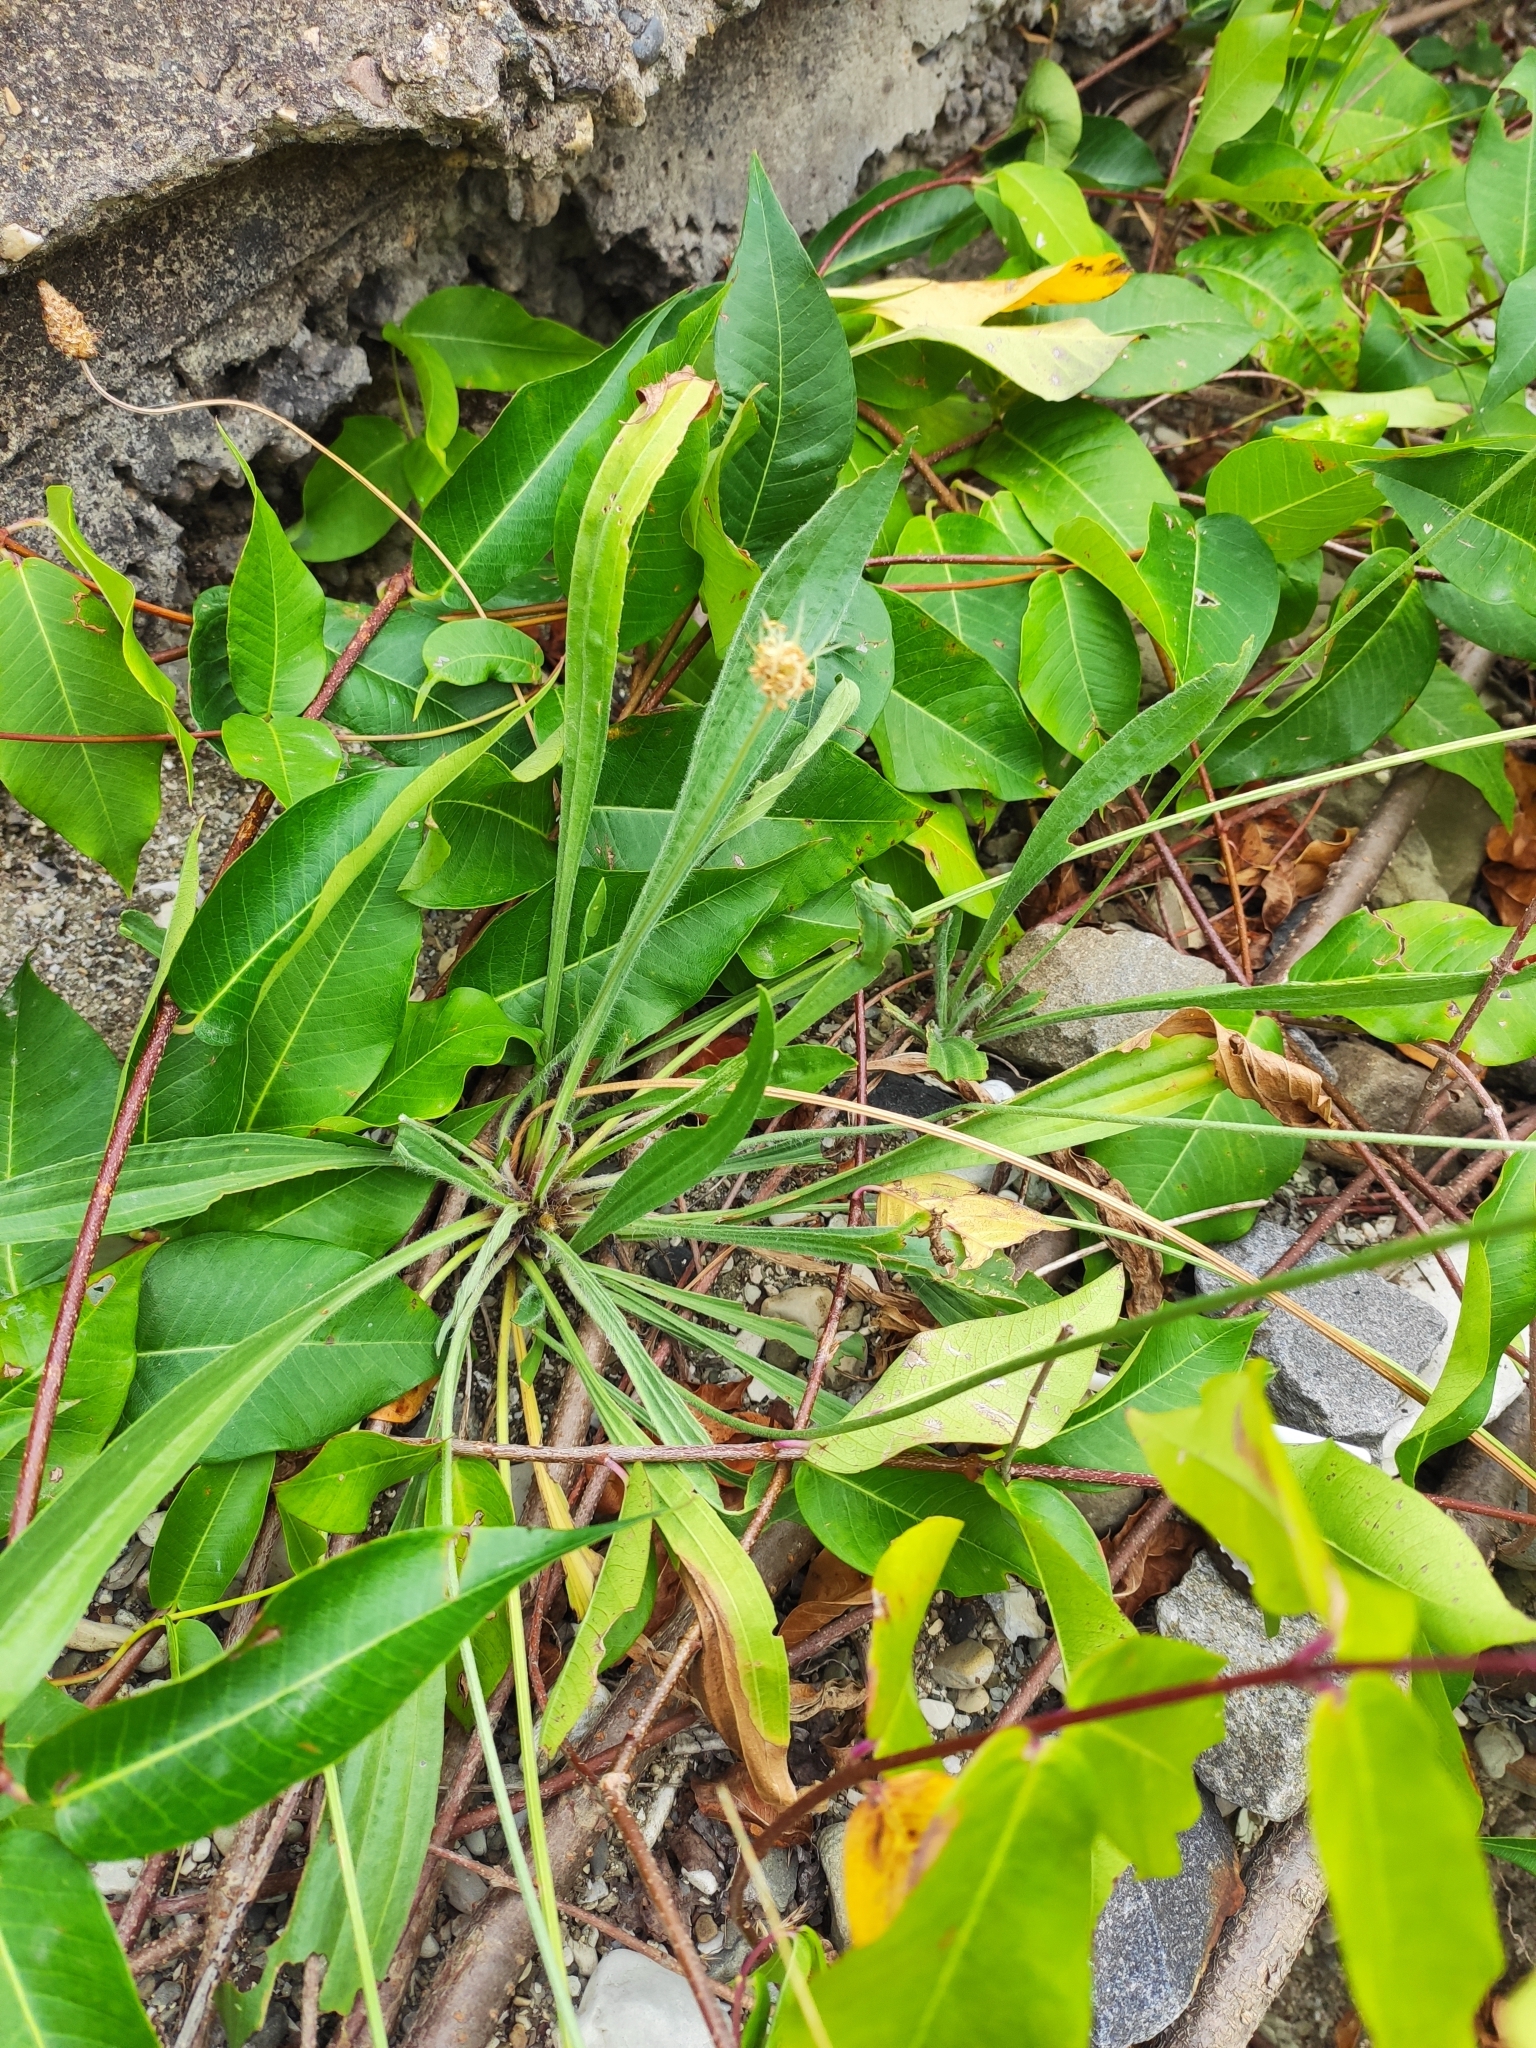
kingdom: Plantae
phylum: Tracheophyta
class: Magnoliopsida
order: Lamiales
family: Plantaginaceae
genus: Plantago
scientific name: Plantago lanceolata
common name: Ribwort plantain
